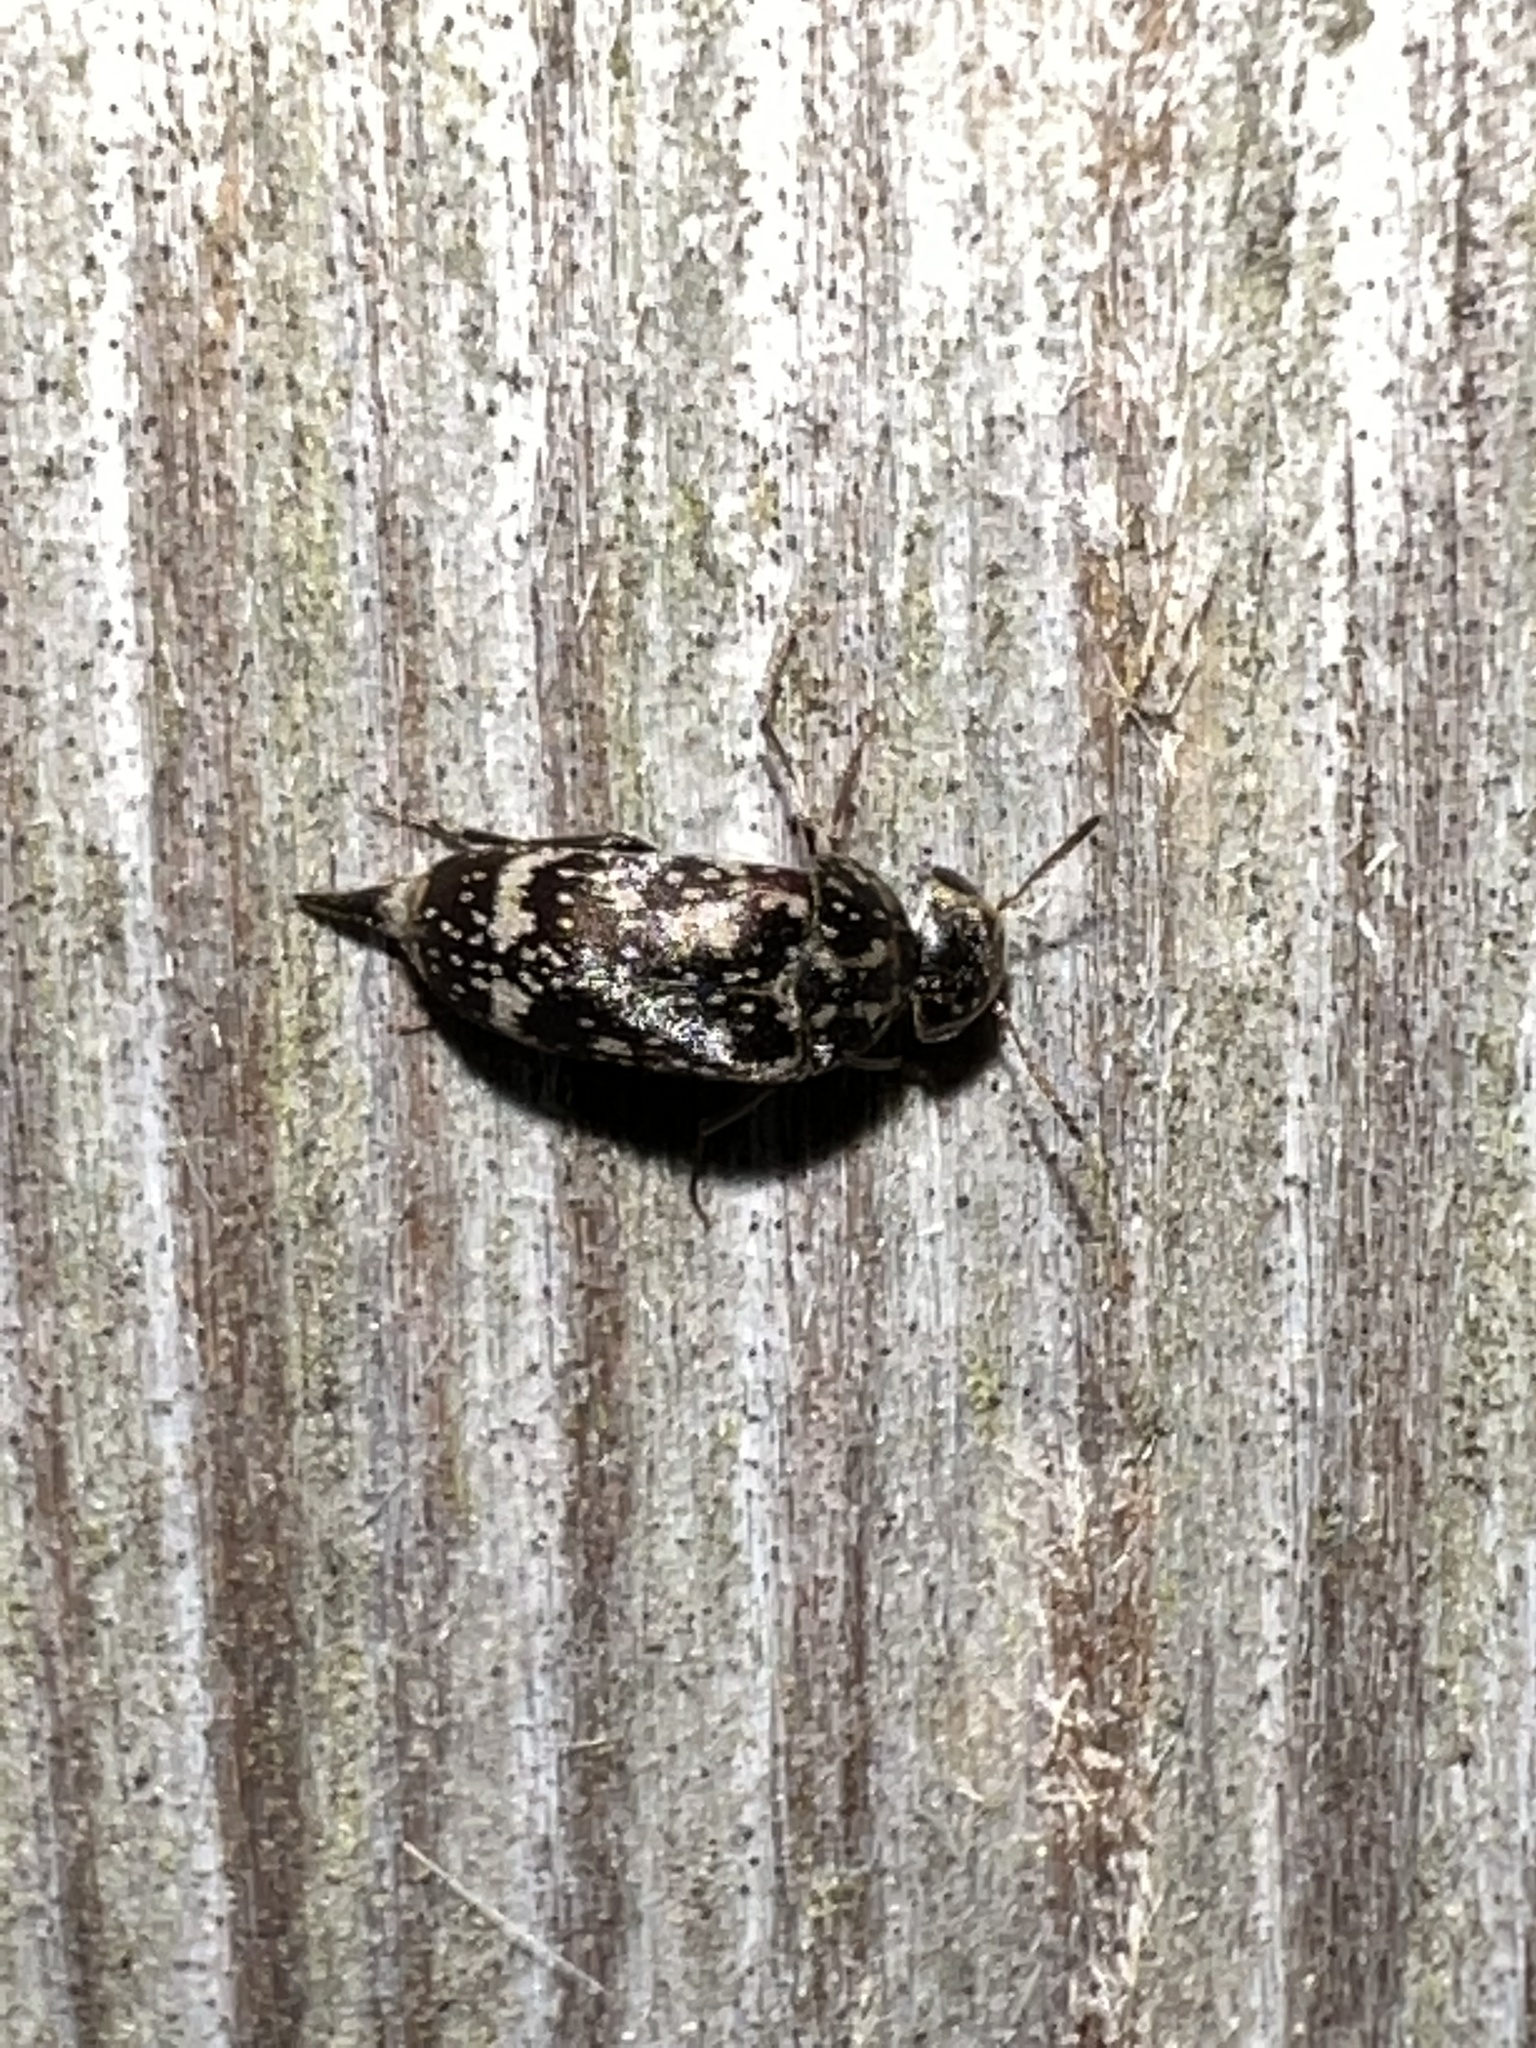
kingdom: Animalia
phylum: Arthropoda
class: Insecta
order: Coleoptera
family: Mordellidae
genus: Mordellaria
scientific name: Mordellaria serval
